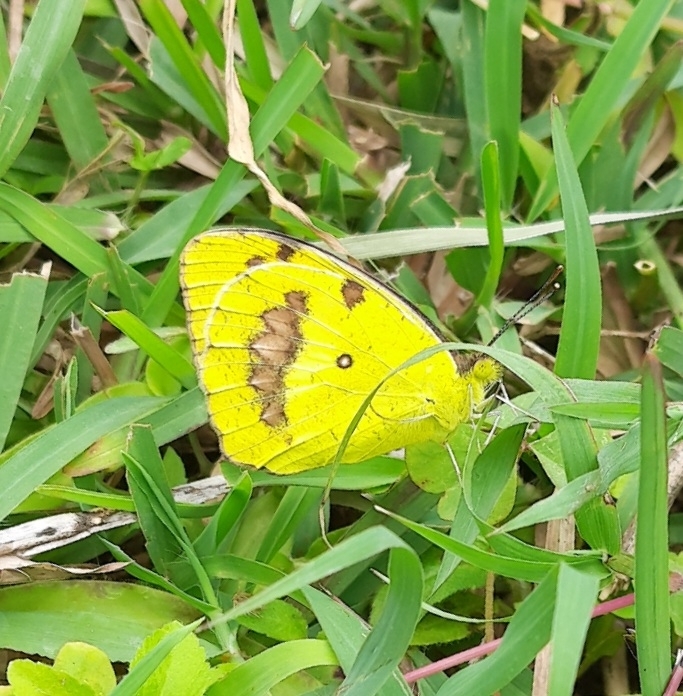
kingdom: Animalia
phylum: Arthropoda
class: Insecta
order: Lepidoptera
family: Pieridae
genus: Ixias
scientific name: Ixias marianne
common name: White orange tip
